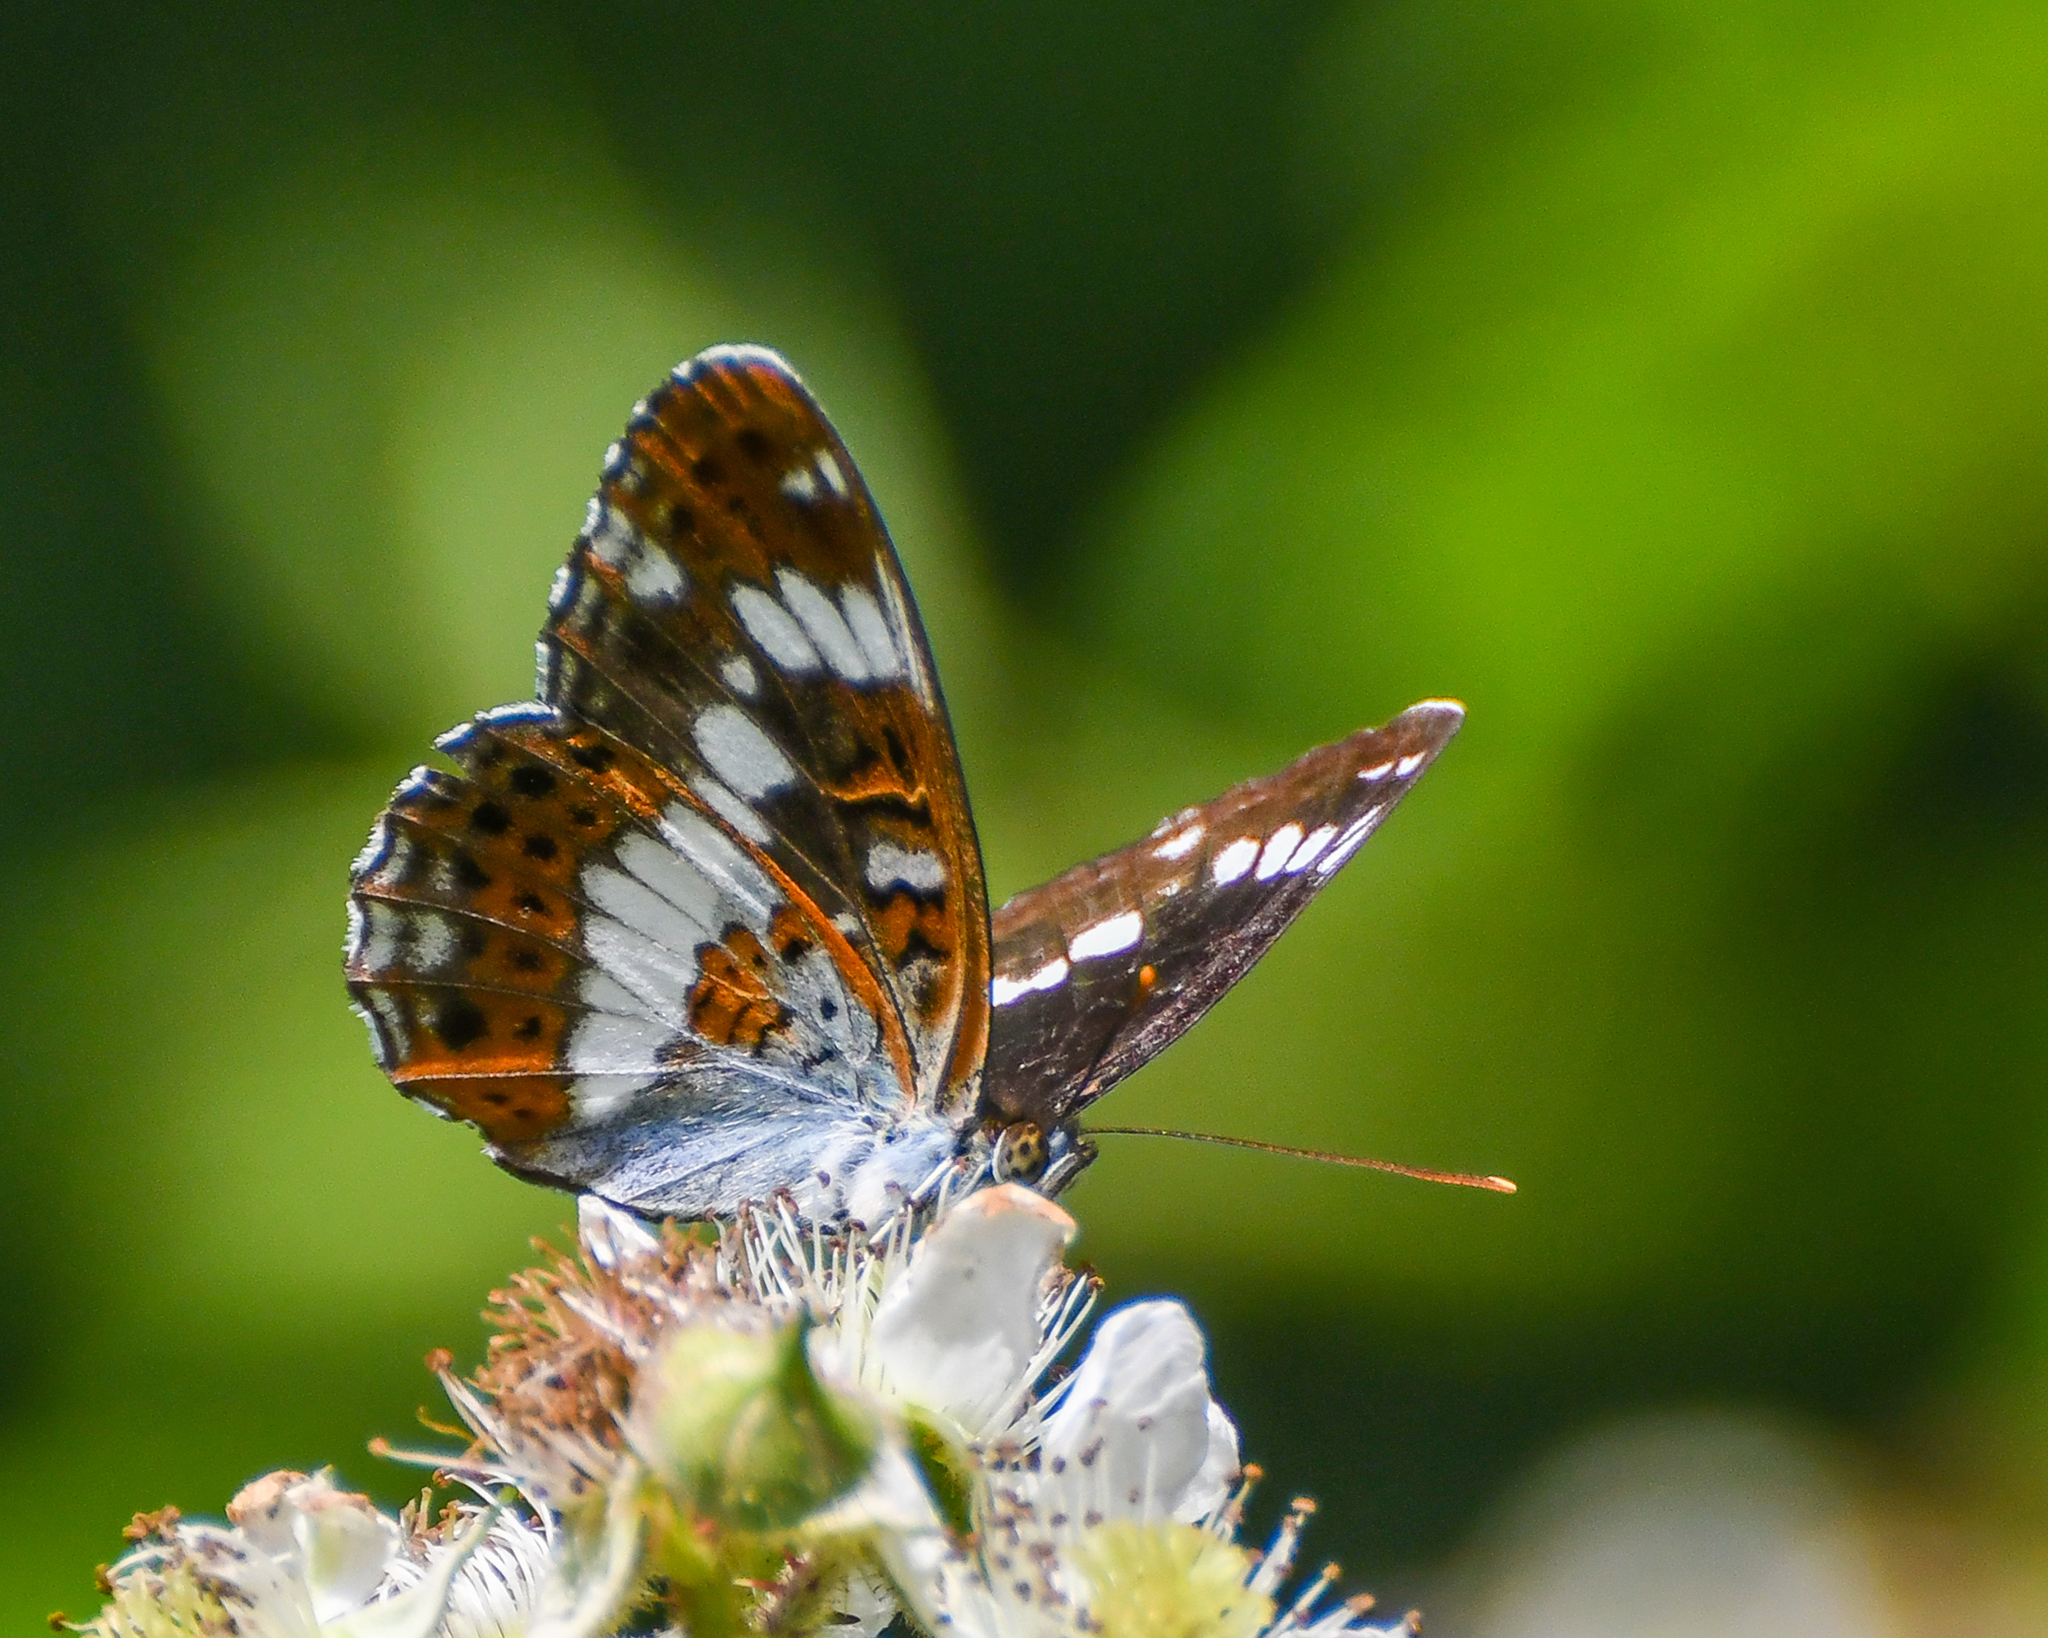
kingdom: Animalia
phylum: Arthropoda
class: Insecta
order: Lepidoptera
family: Nymphalidae
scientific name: Nymphalidae
